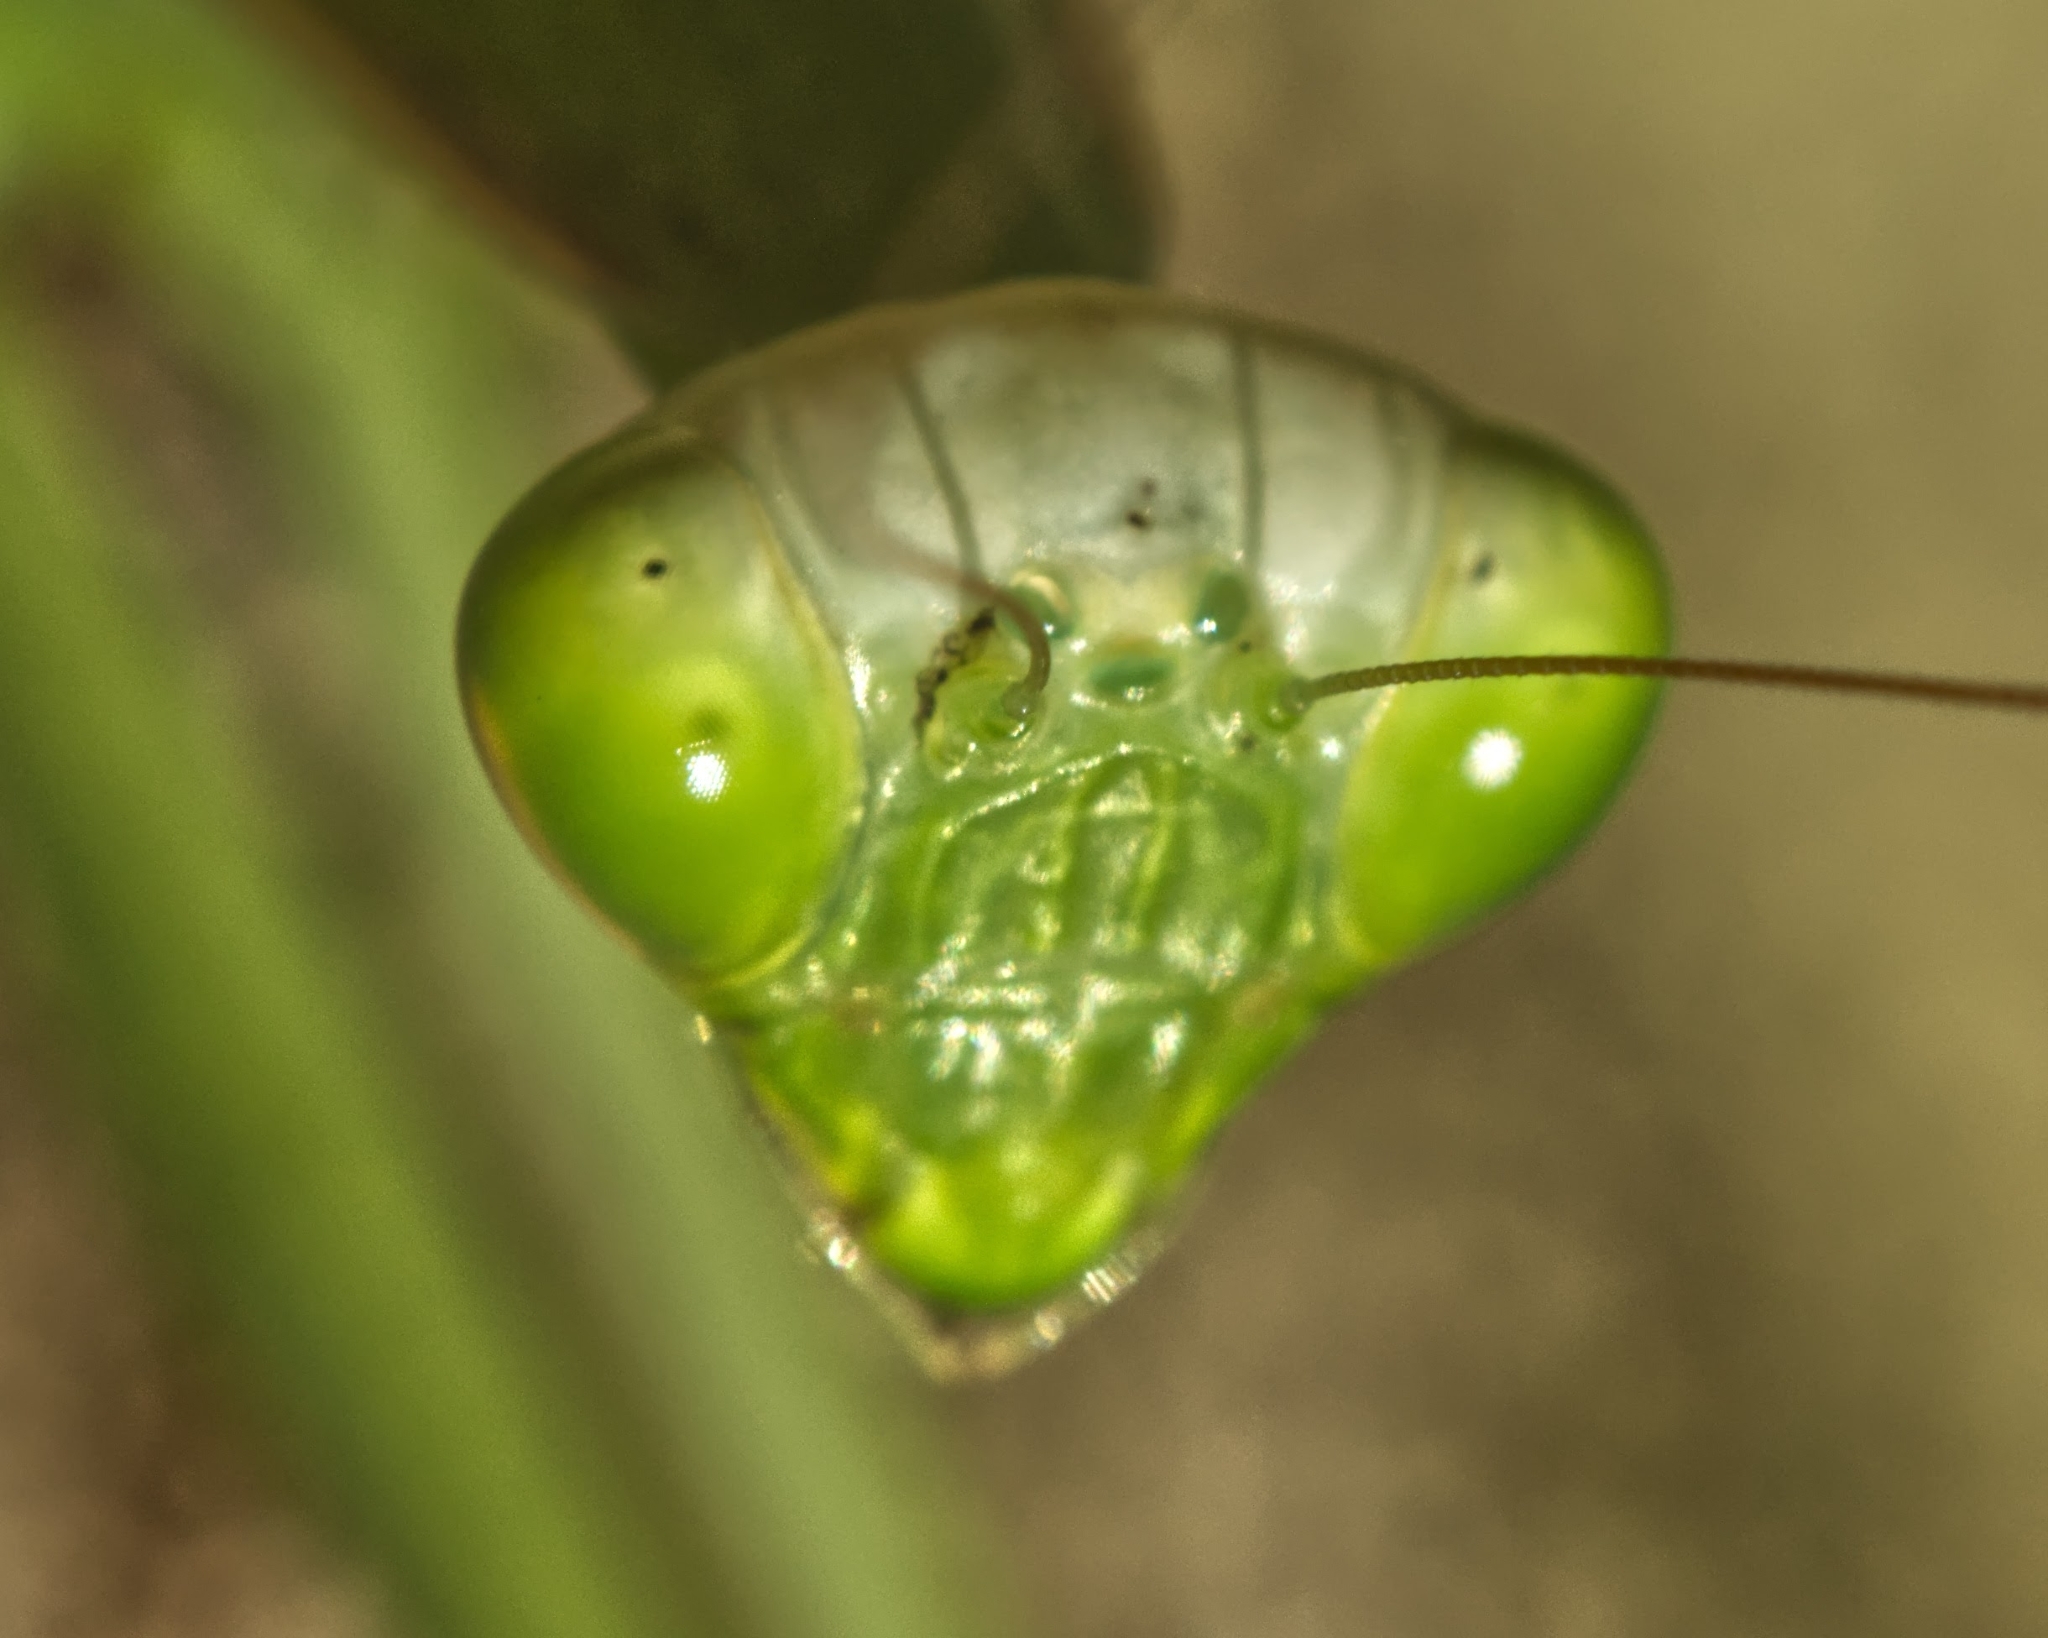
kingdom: Animalia
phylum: Arthropoda
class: Insecta
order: Mantodea
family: Mantidae
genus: Paramantis
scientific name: Paramantis sacra
